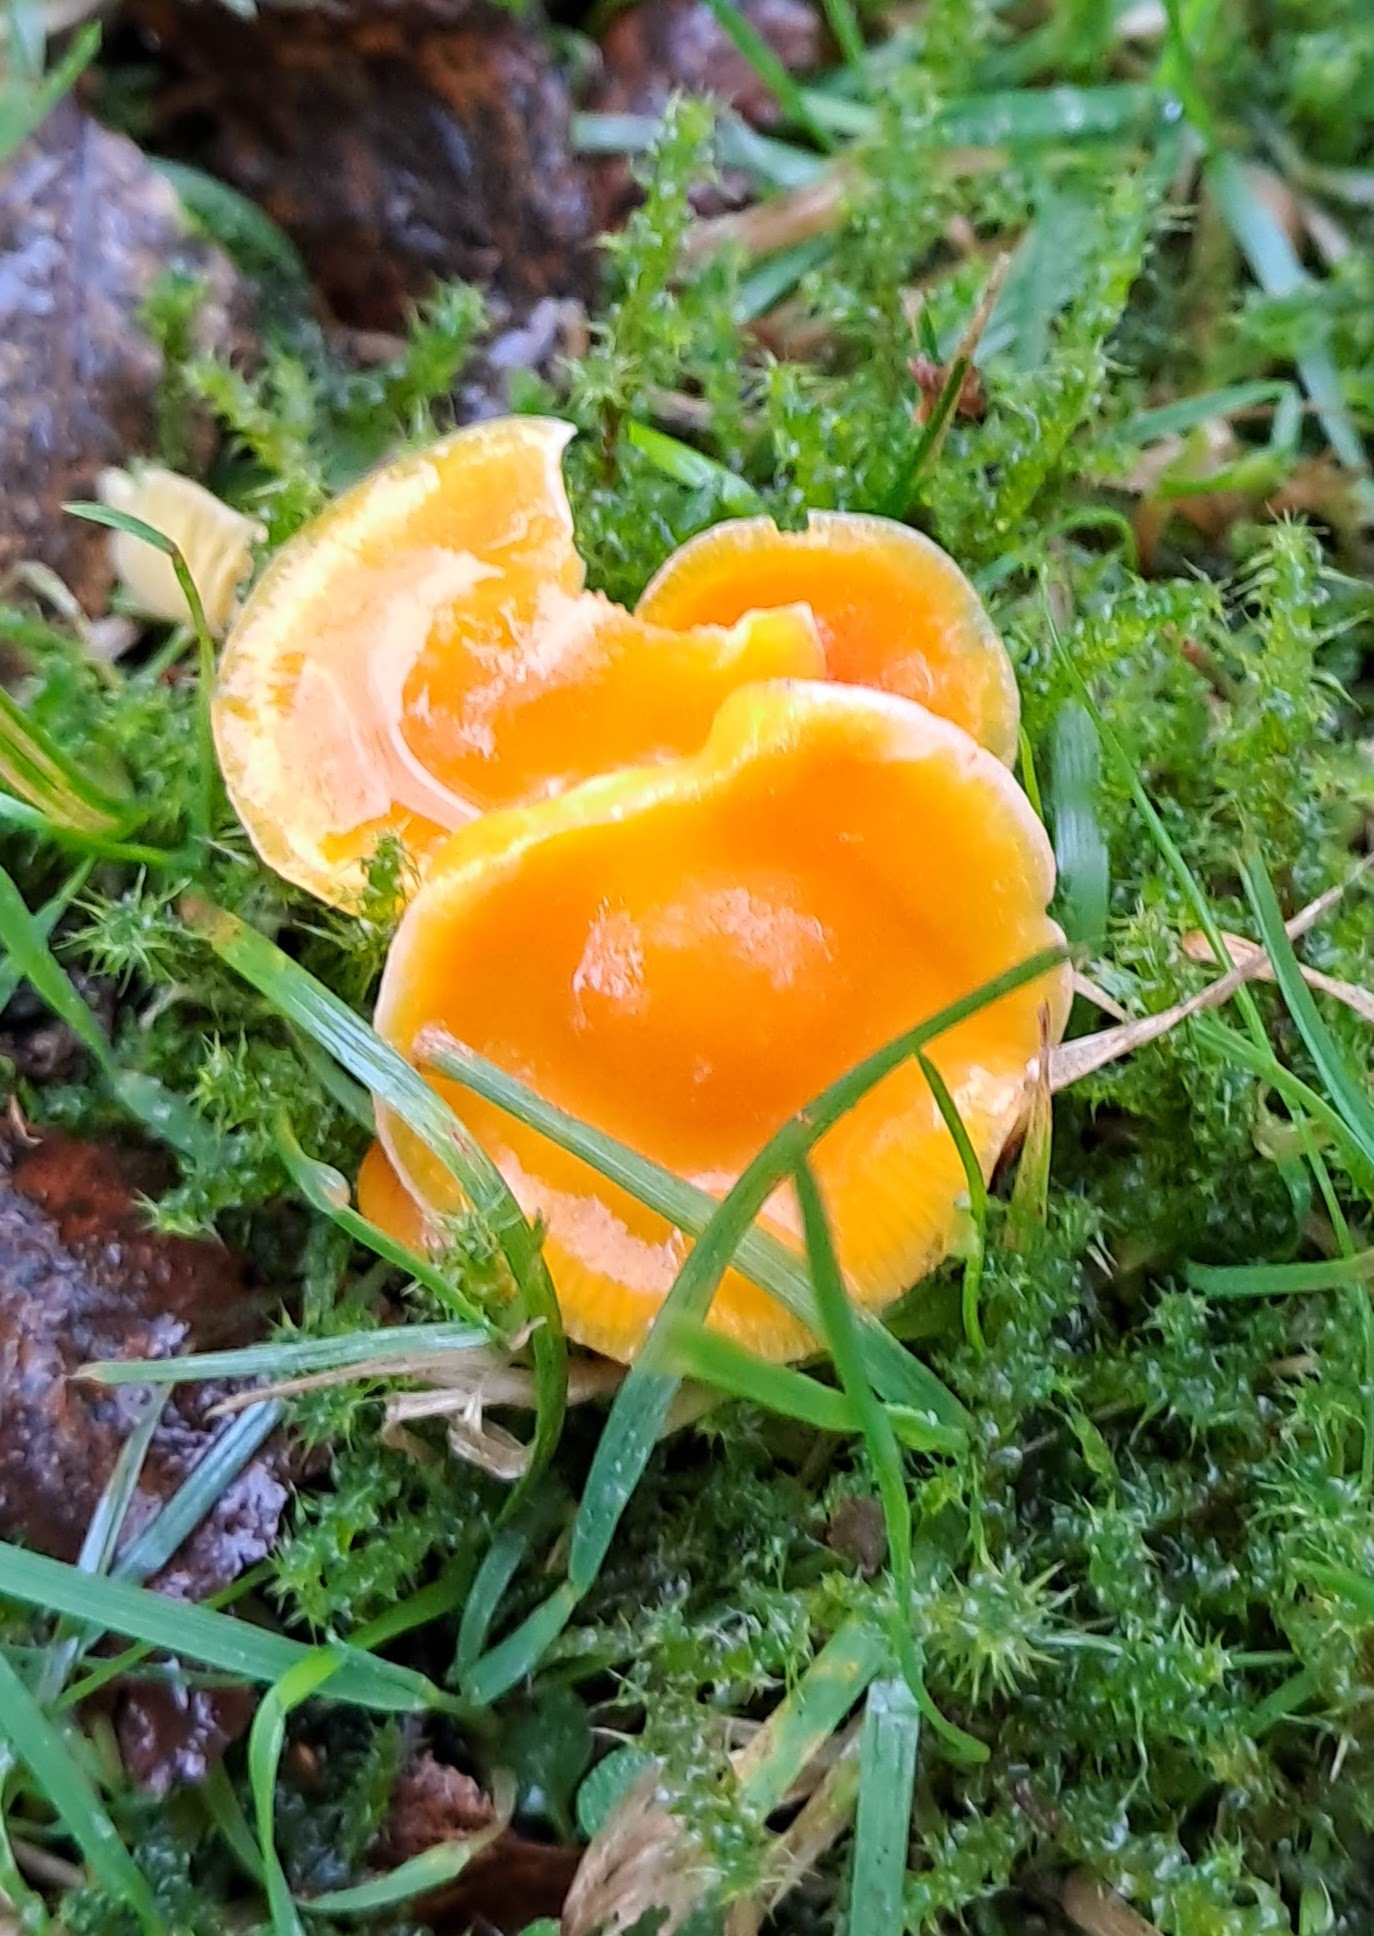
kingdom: Fungi
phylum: Basidiomycota
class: Agaricomycetes
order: Agaricales
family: Hygrophoraceae
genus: Hygrocybe
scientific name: Hygrocybe ceracea
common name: Butter waxcap
